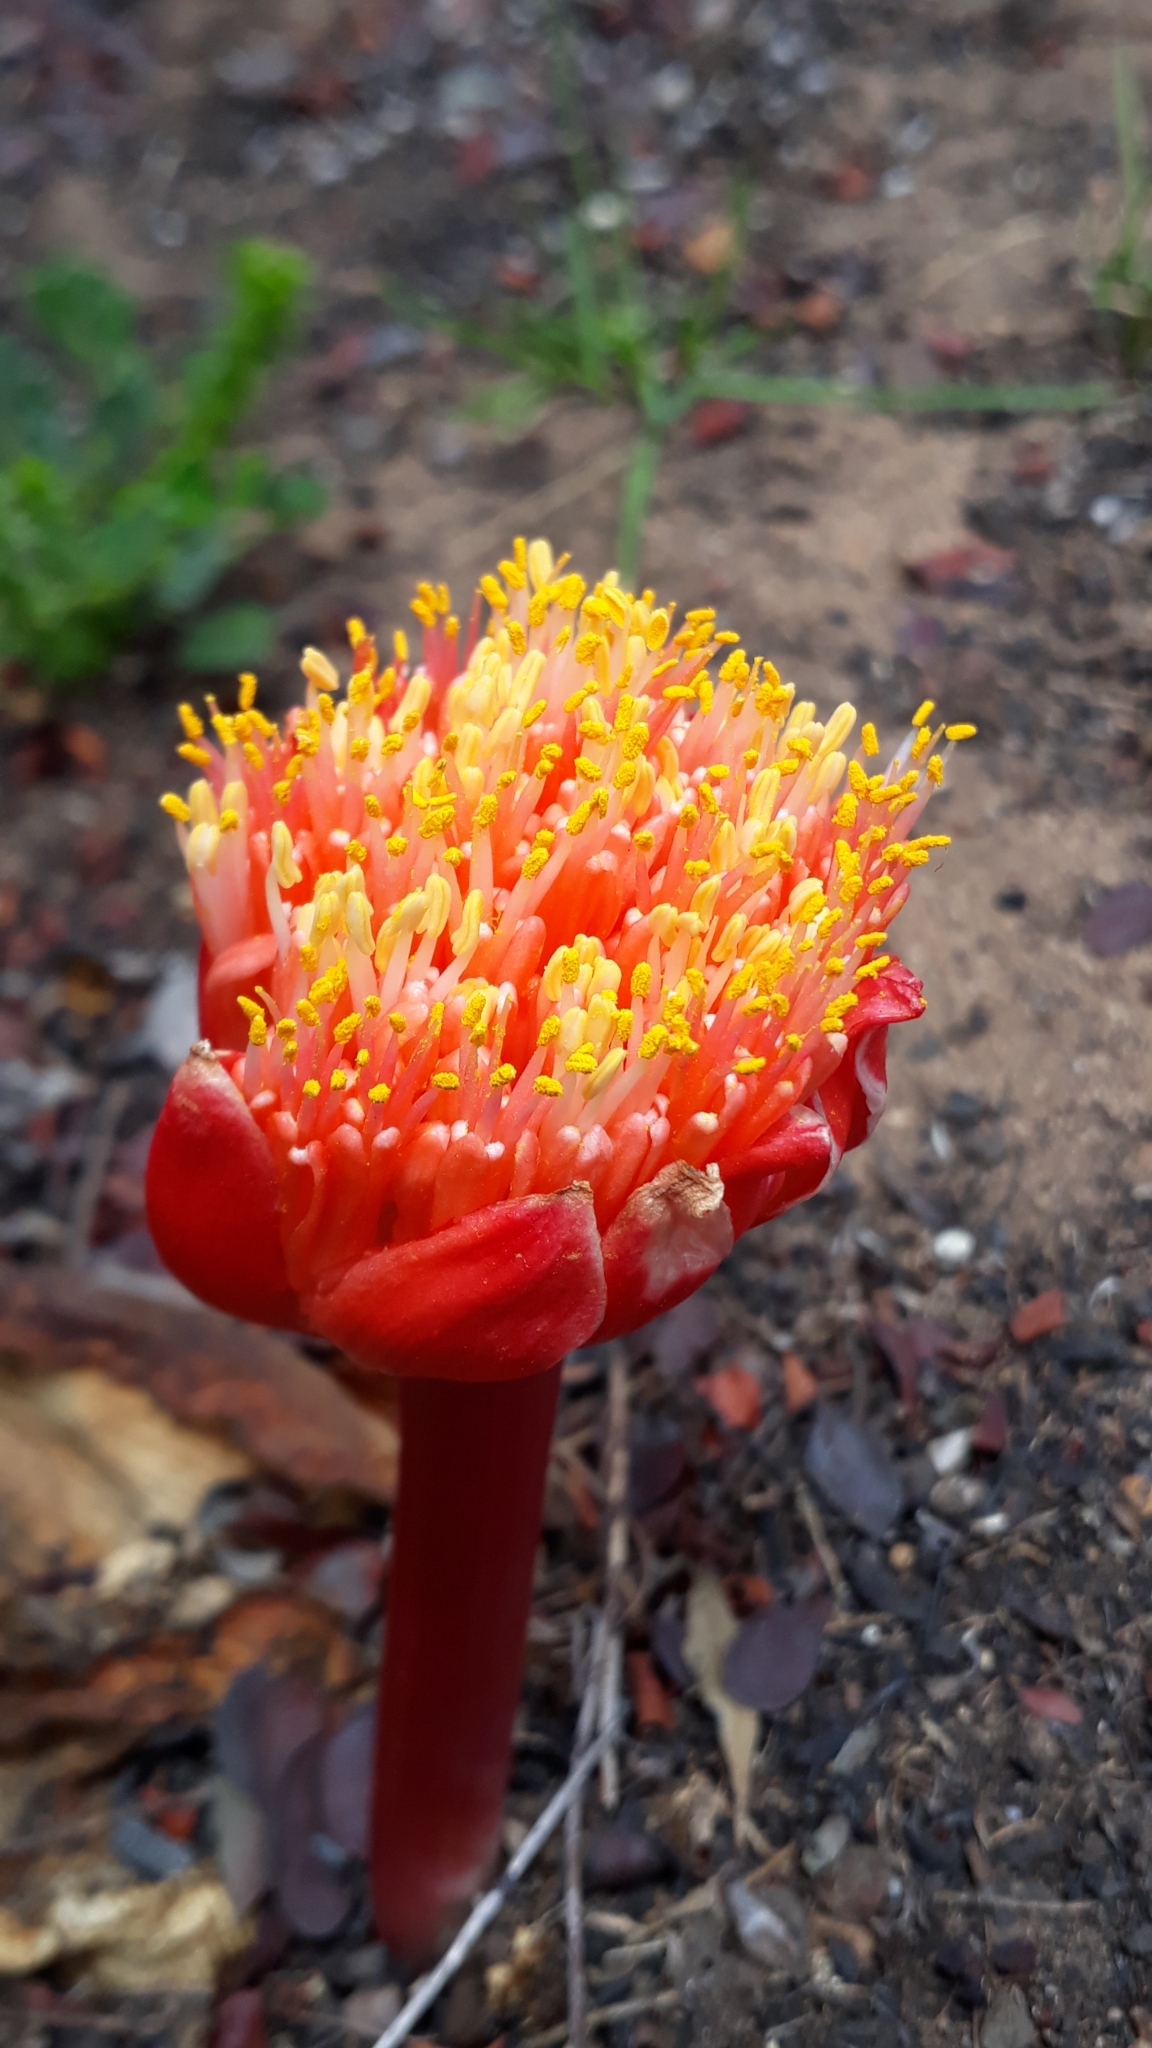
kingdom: Plantae
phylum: Tracheophyta
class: Liliopsida
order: Asparagales
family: Amaryllidaceae
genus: Haemanthus
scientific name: Haemanthus sanguineus
